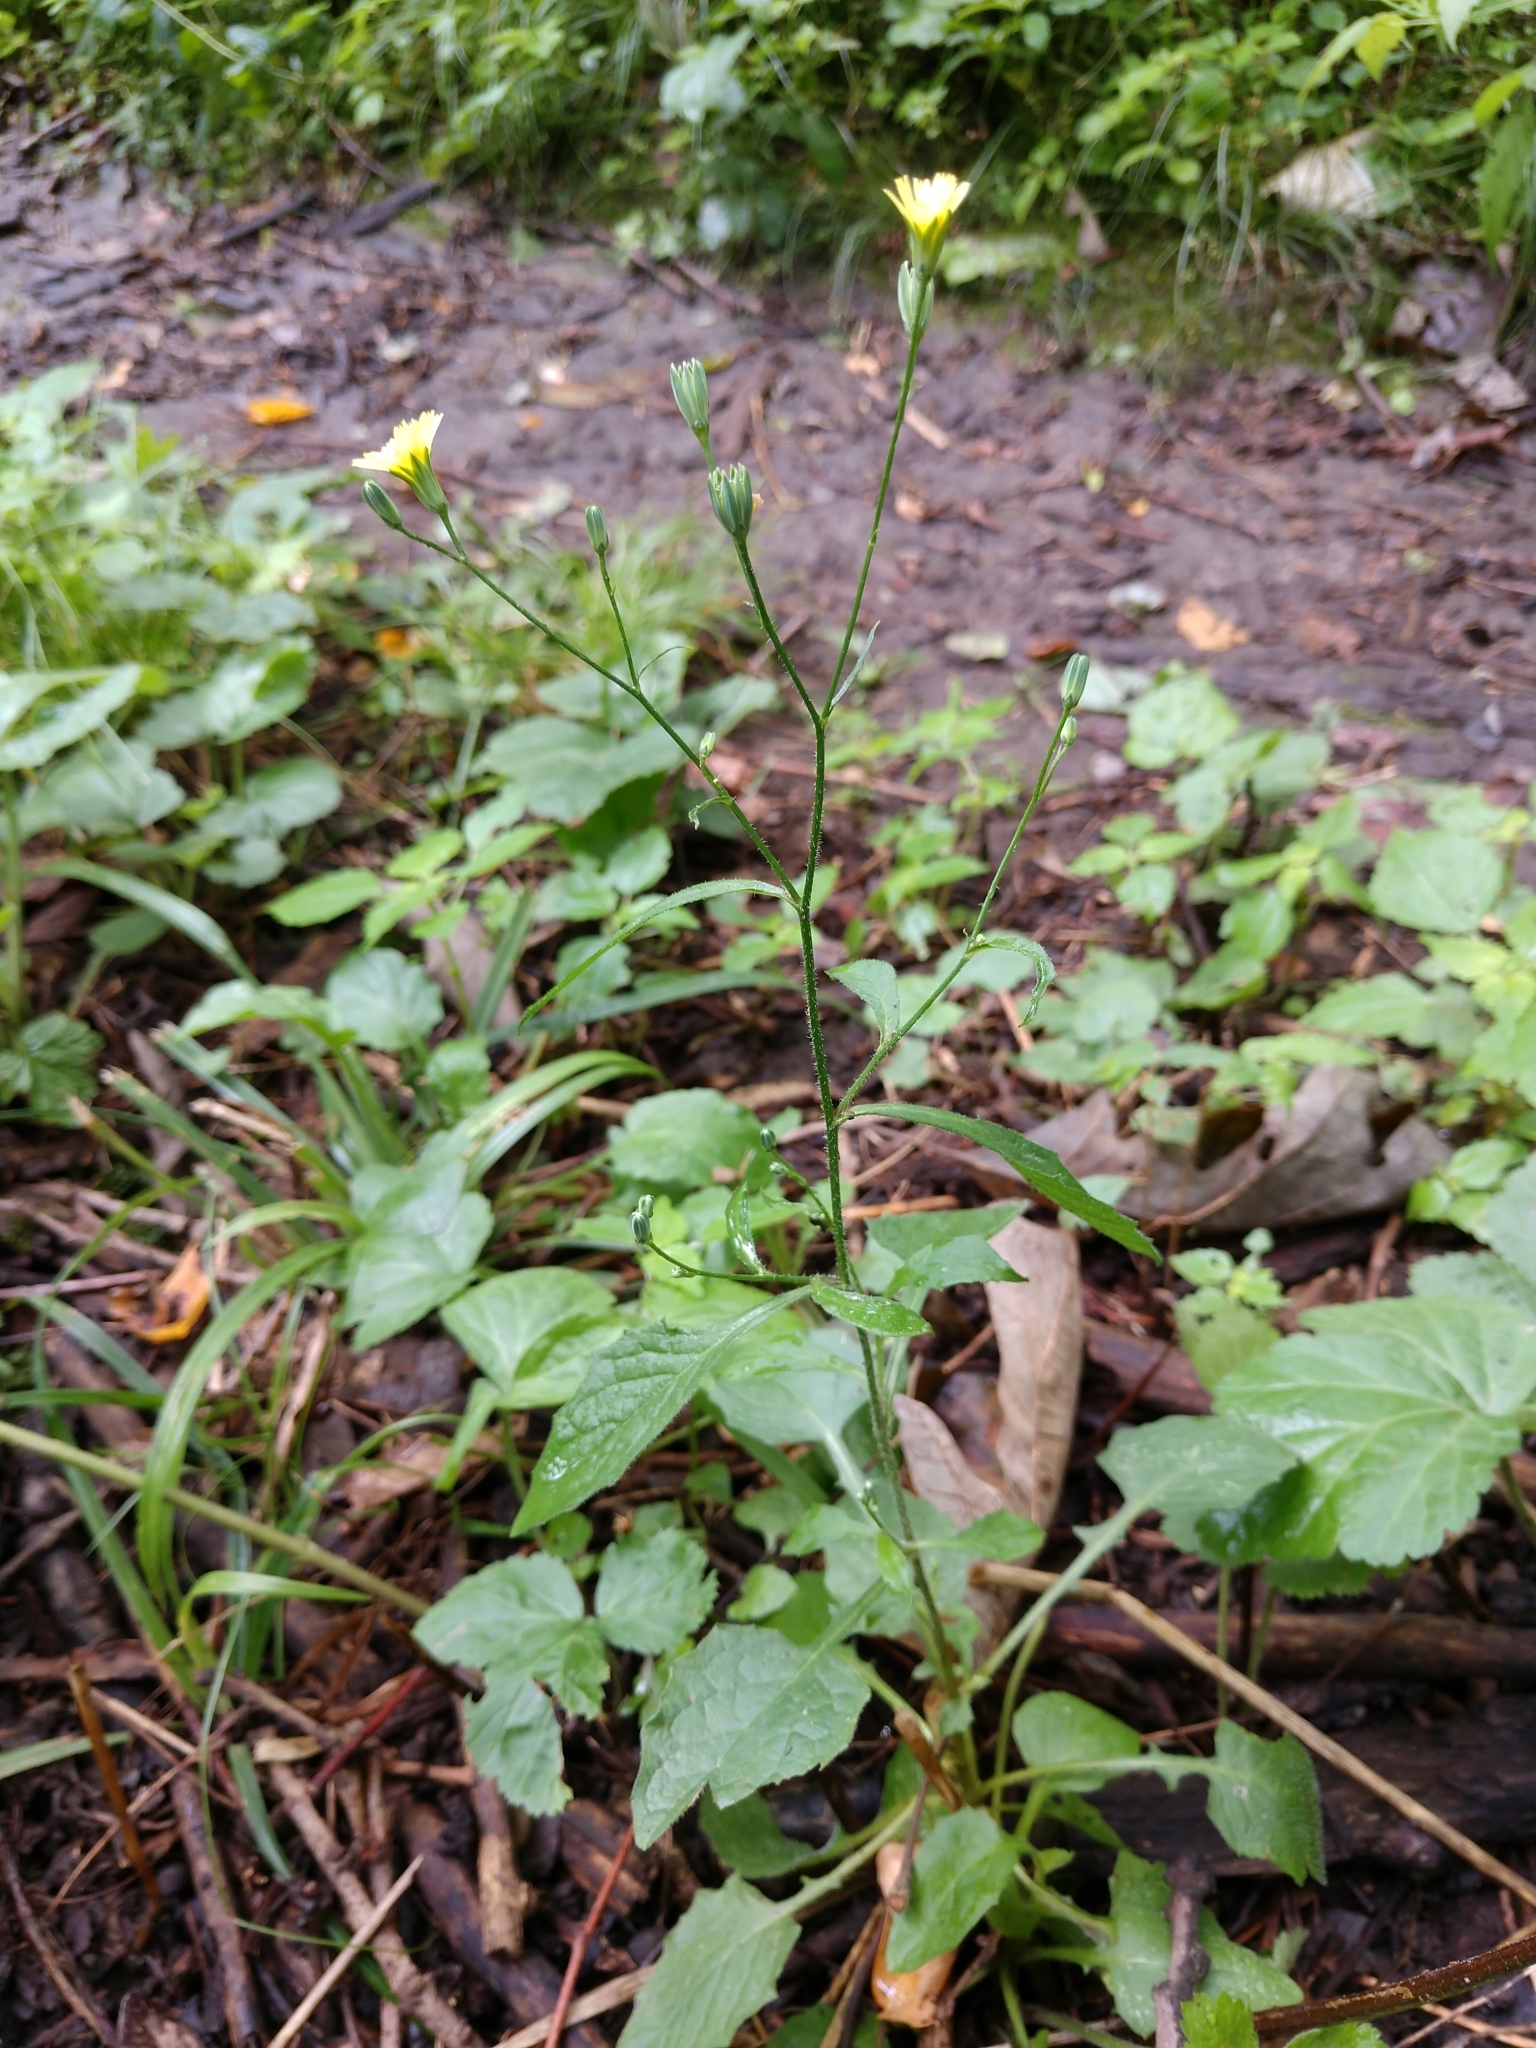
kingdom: Plantae
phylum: Tracheophyta
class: Magnoliopsida
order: Asterales
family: Asteraceae
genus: Lapsana
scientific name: Lapsana communis
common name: Nipplewort
